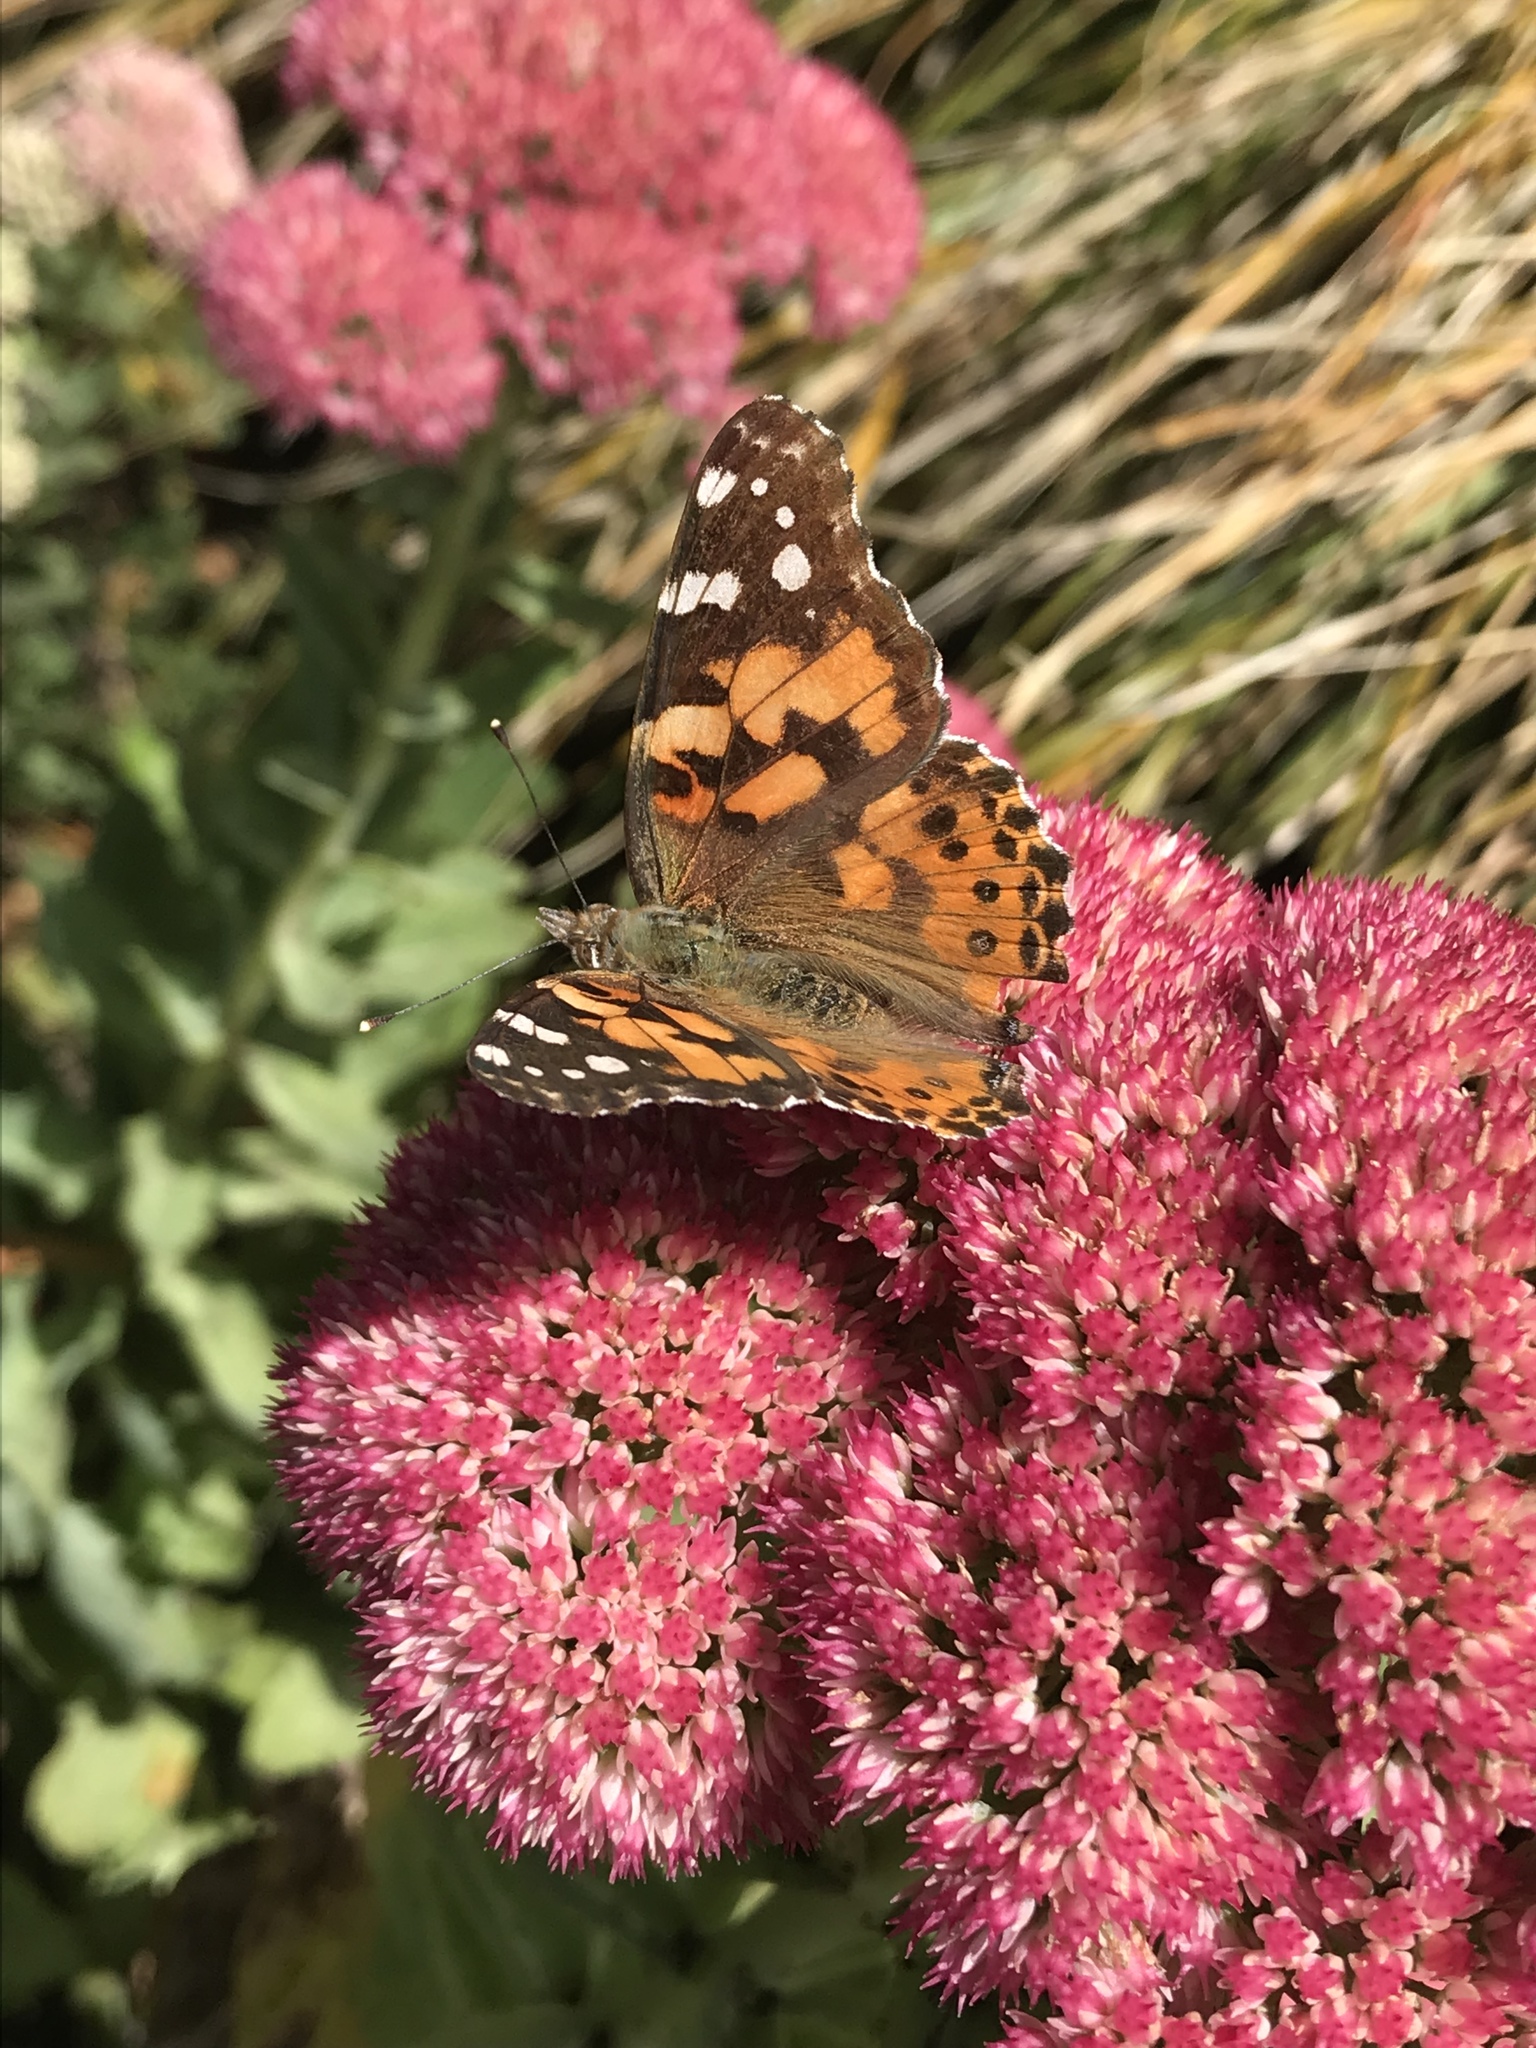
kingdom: Animalia
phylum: Arthropoda
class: Insecta
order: Lepidoptera
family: Nymphalidae
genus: Vanessa
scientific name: Vanessa cardui
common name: Painted lady
